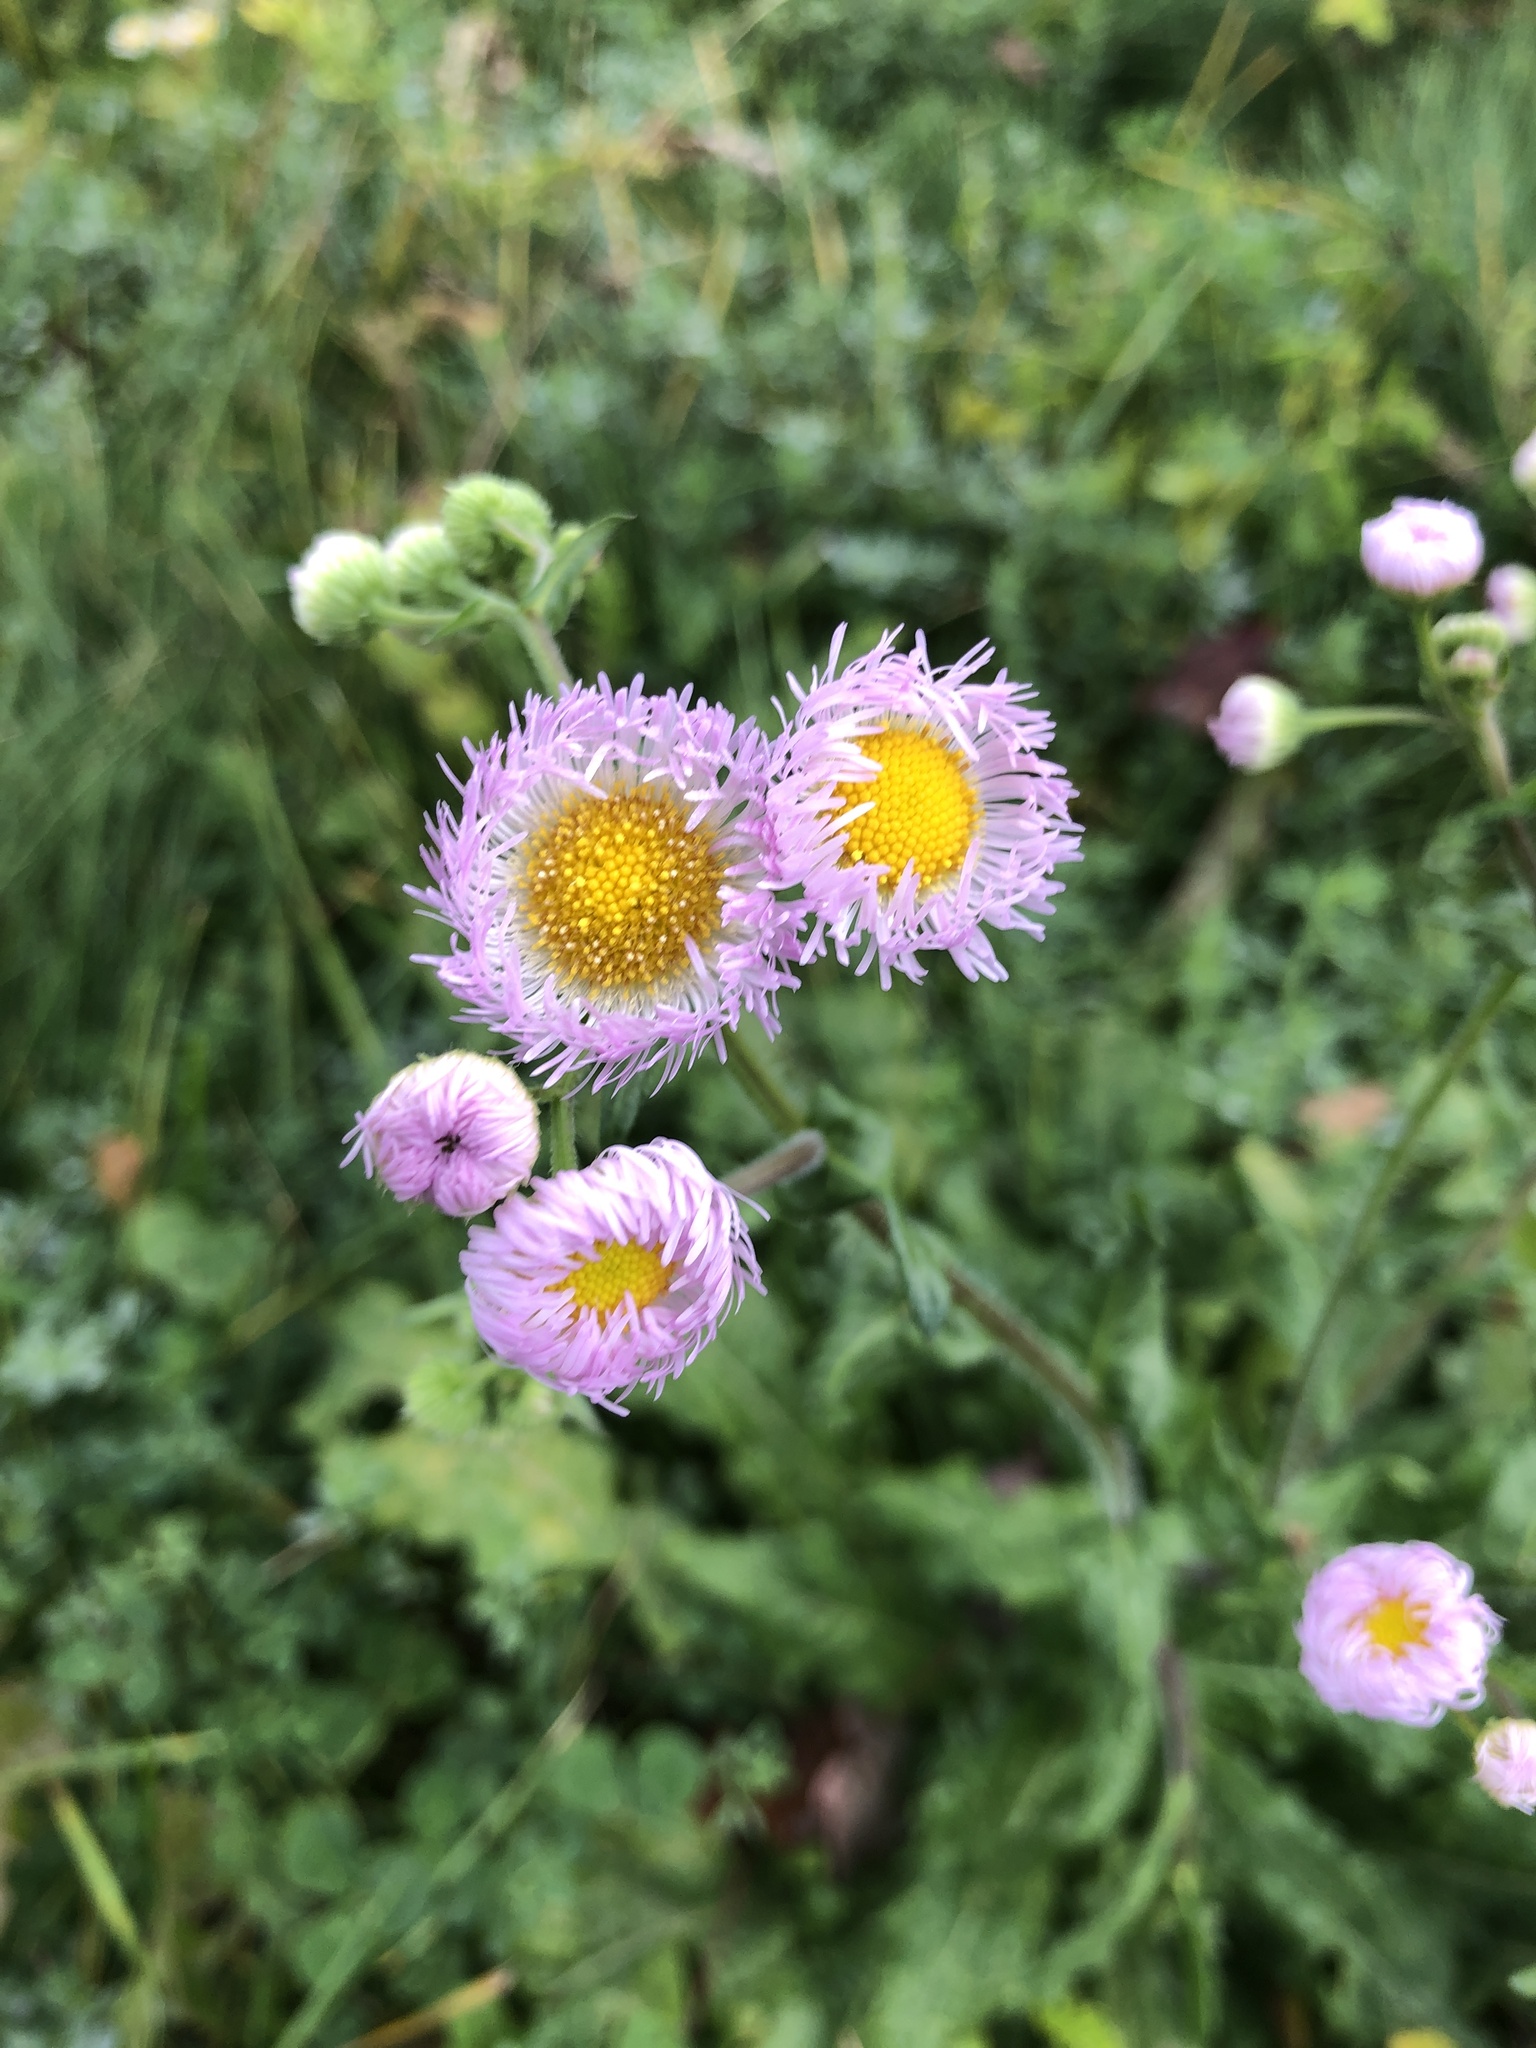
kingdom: Plantae
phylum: Tracheophyta
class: Magnoliopsida
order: Asterales
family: Asteraceae
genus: Erigeron
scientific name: Erigeron philadelphicus
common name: Robin's-plantain
